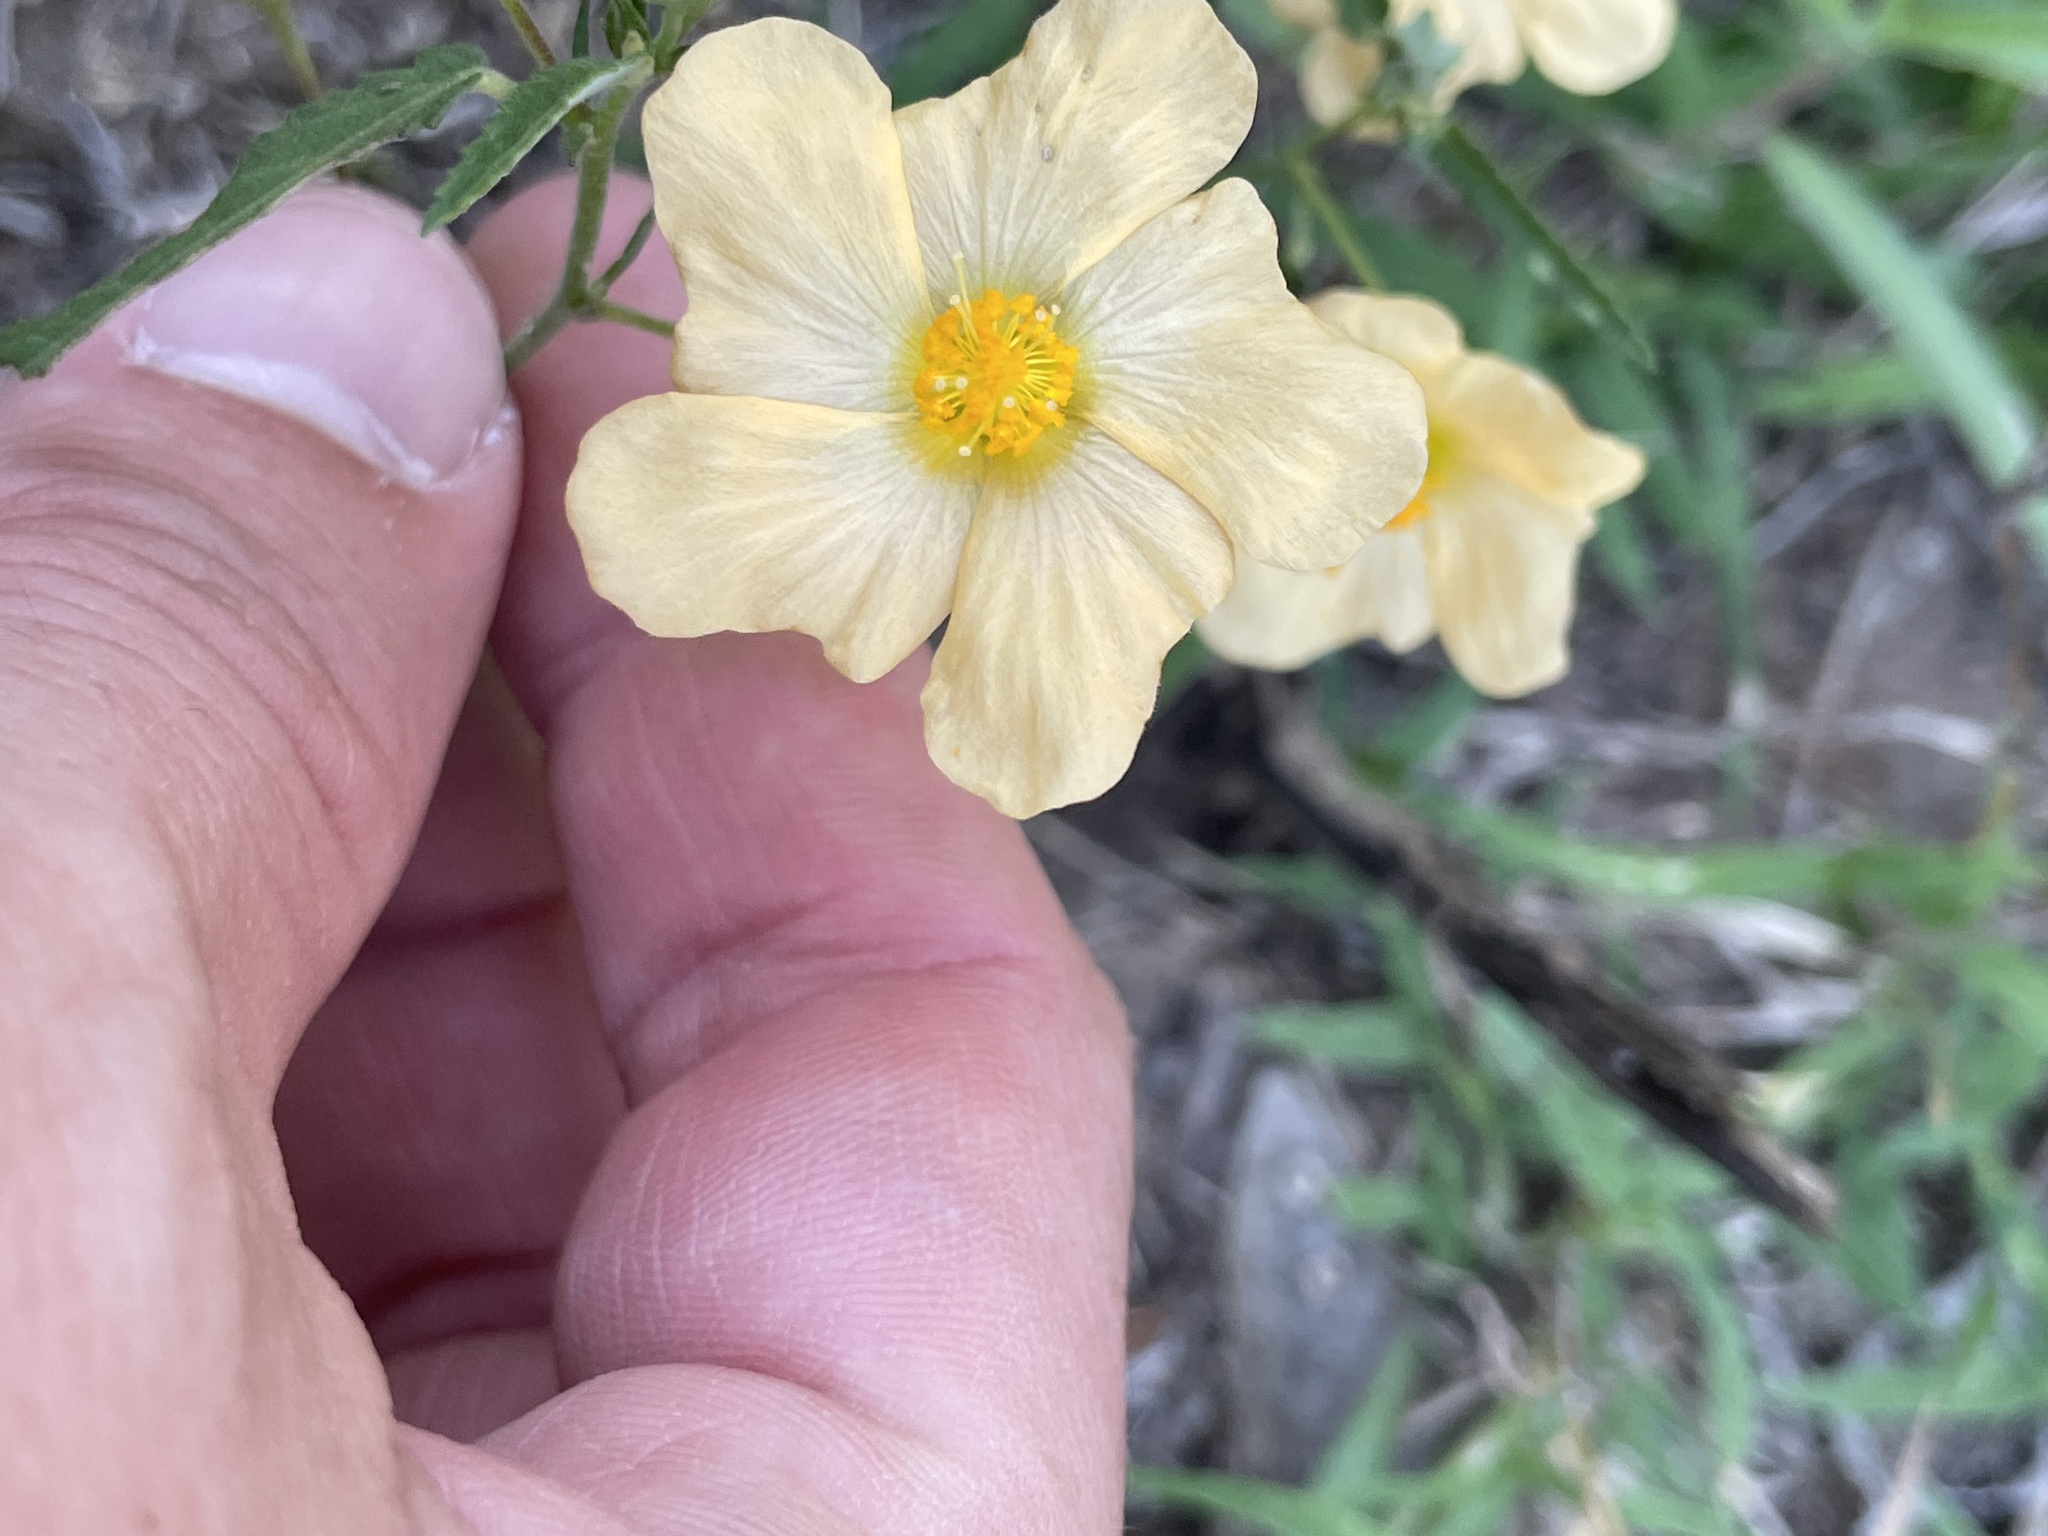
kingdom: Plantae
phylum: Tracheophyta
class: Magnoliopsida
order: Malvales
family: Malvaceae
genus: Sida
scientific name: Sida lindheimeri
